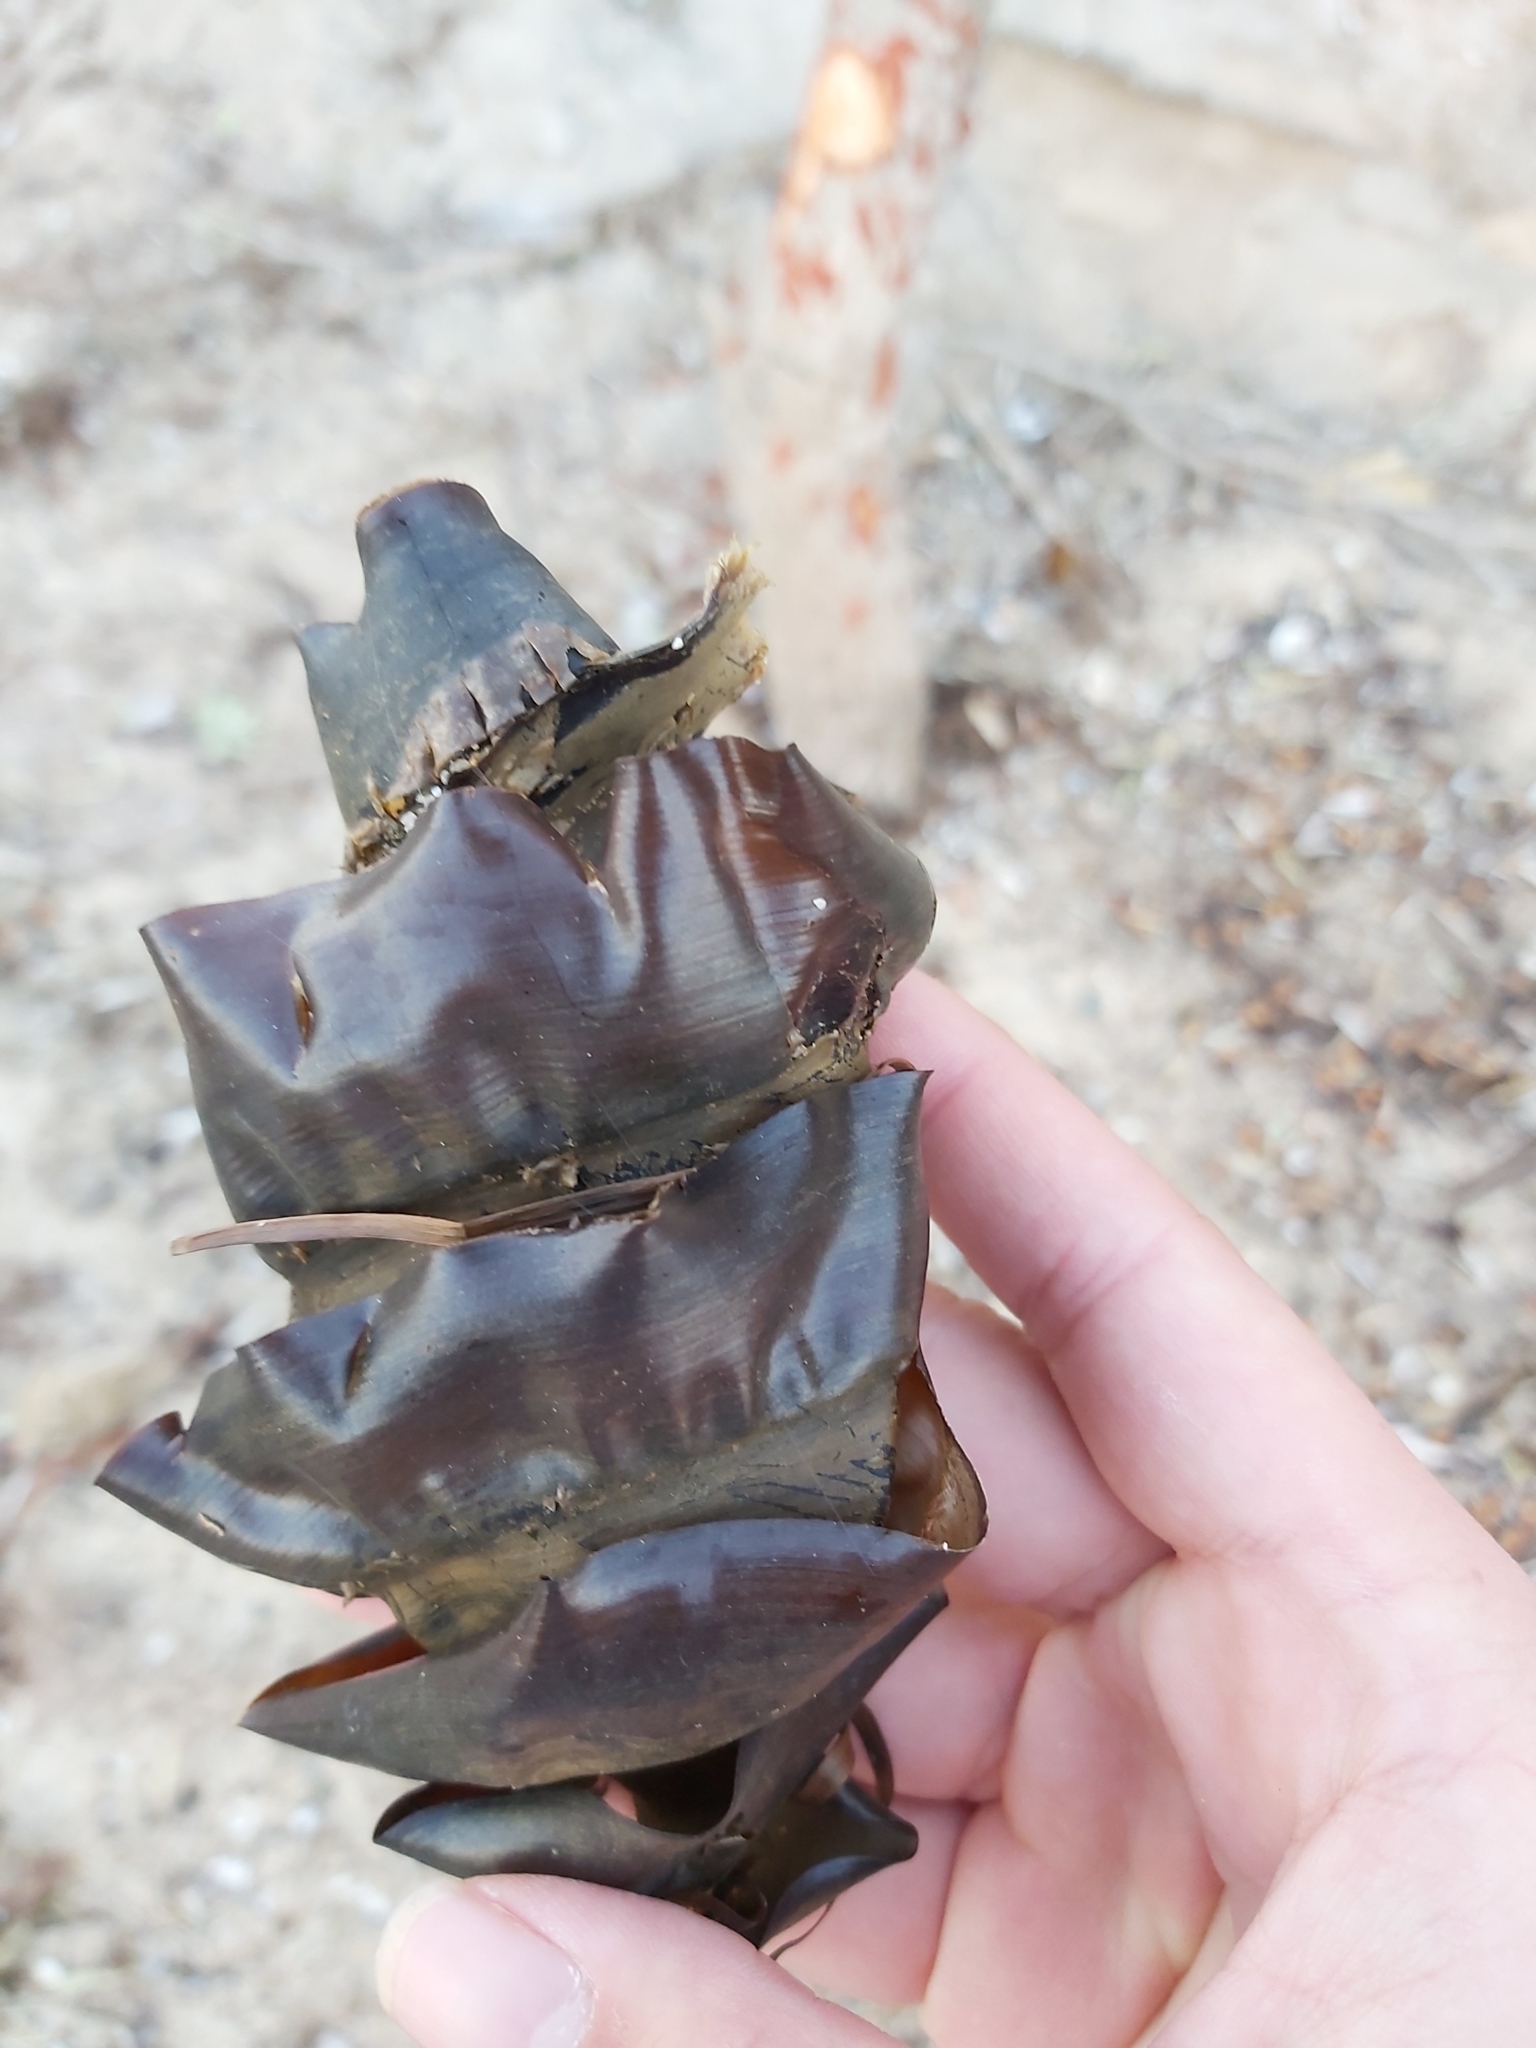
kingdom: Animalia
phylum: Chordata
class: Elasmobranchii
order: Heterodontiformes
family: Heterodontidae
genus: Heterodontus
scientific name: Heterodontus portusjacksoni
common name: Port jackson shark
